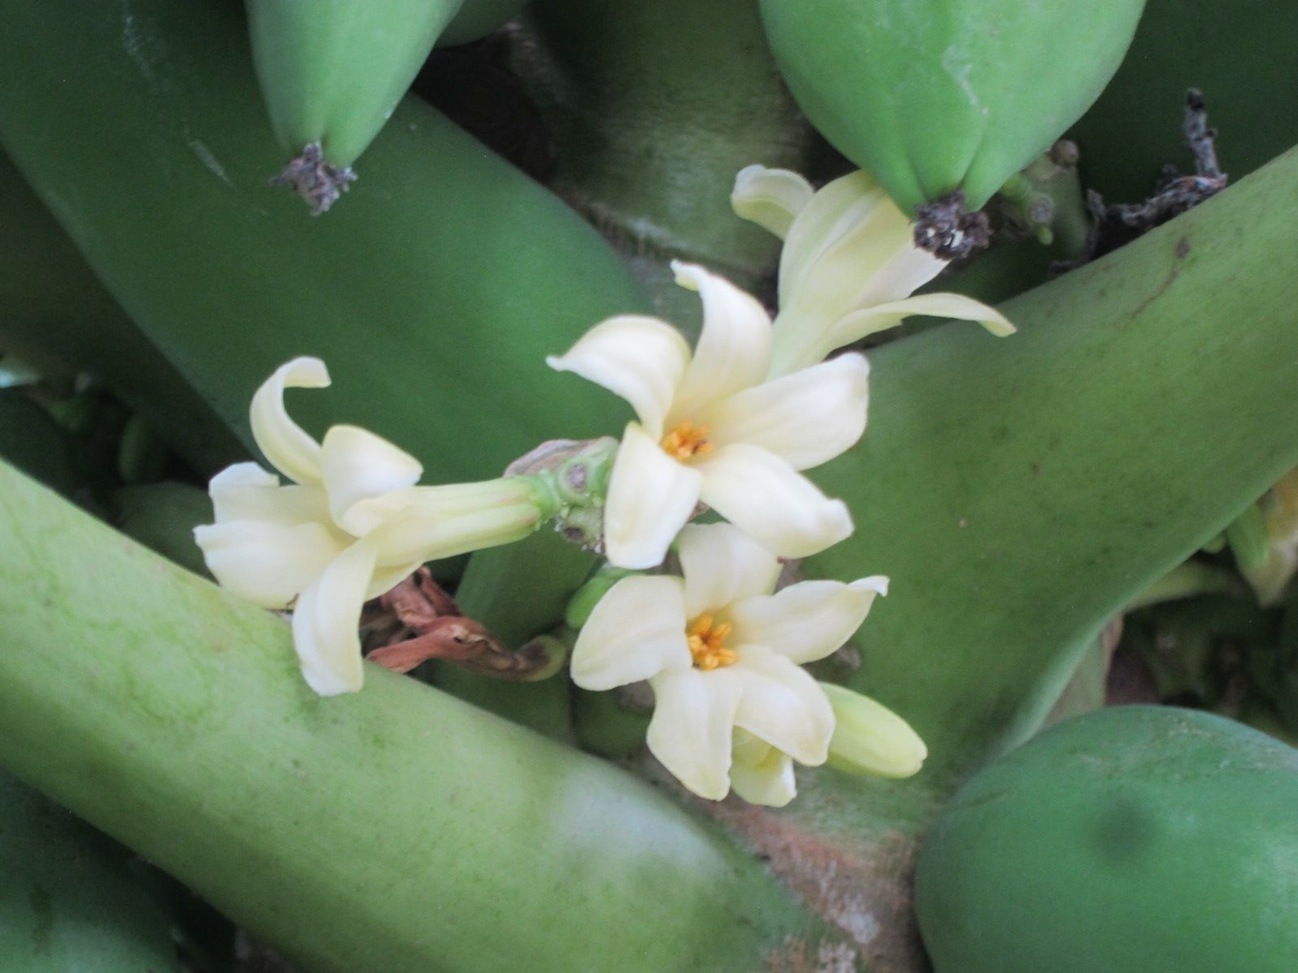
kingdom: Plantae
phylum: Tracheophyta
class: Magnoliopsida
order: Brassicales
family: Caricaceae
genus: Carica
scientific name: Carica papaya
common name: Papaya
